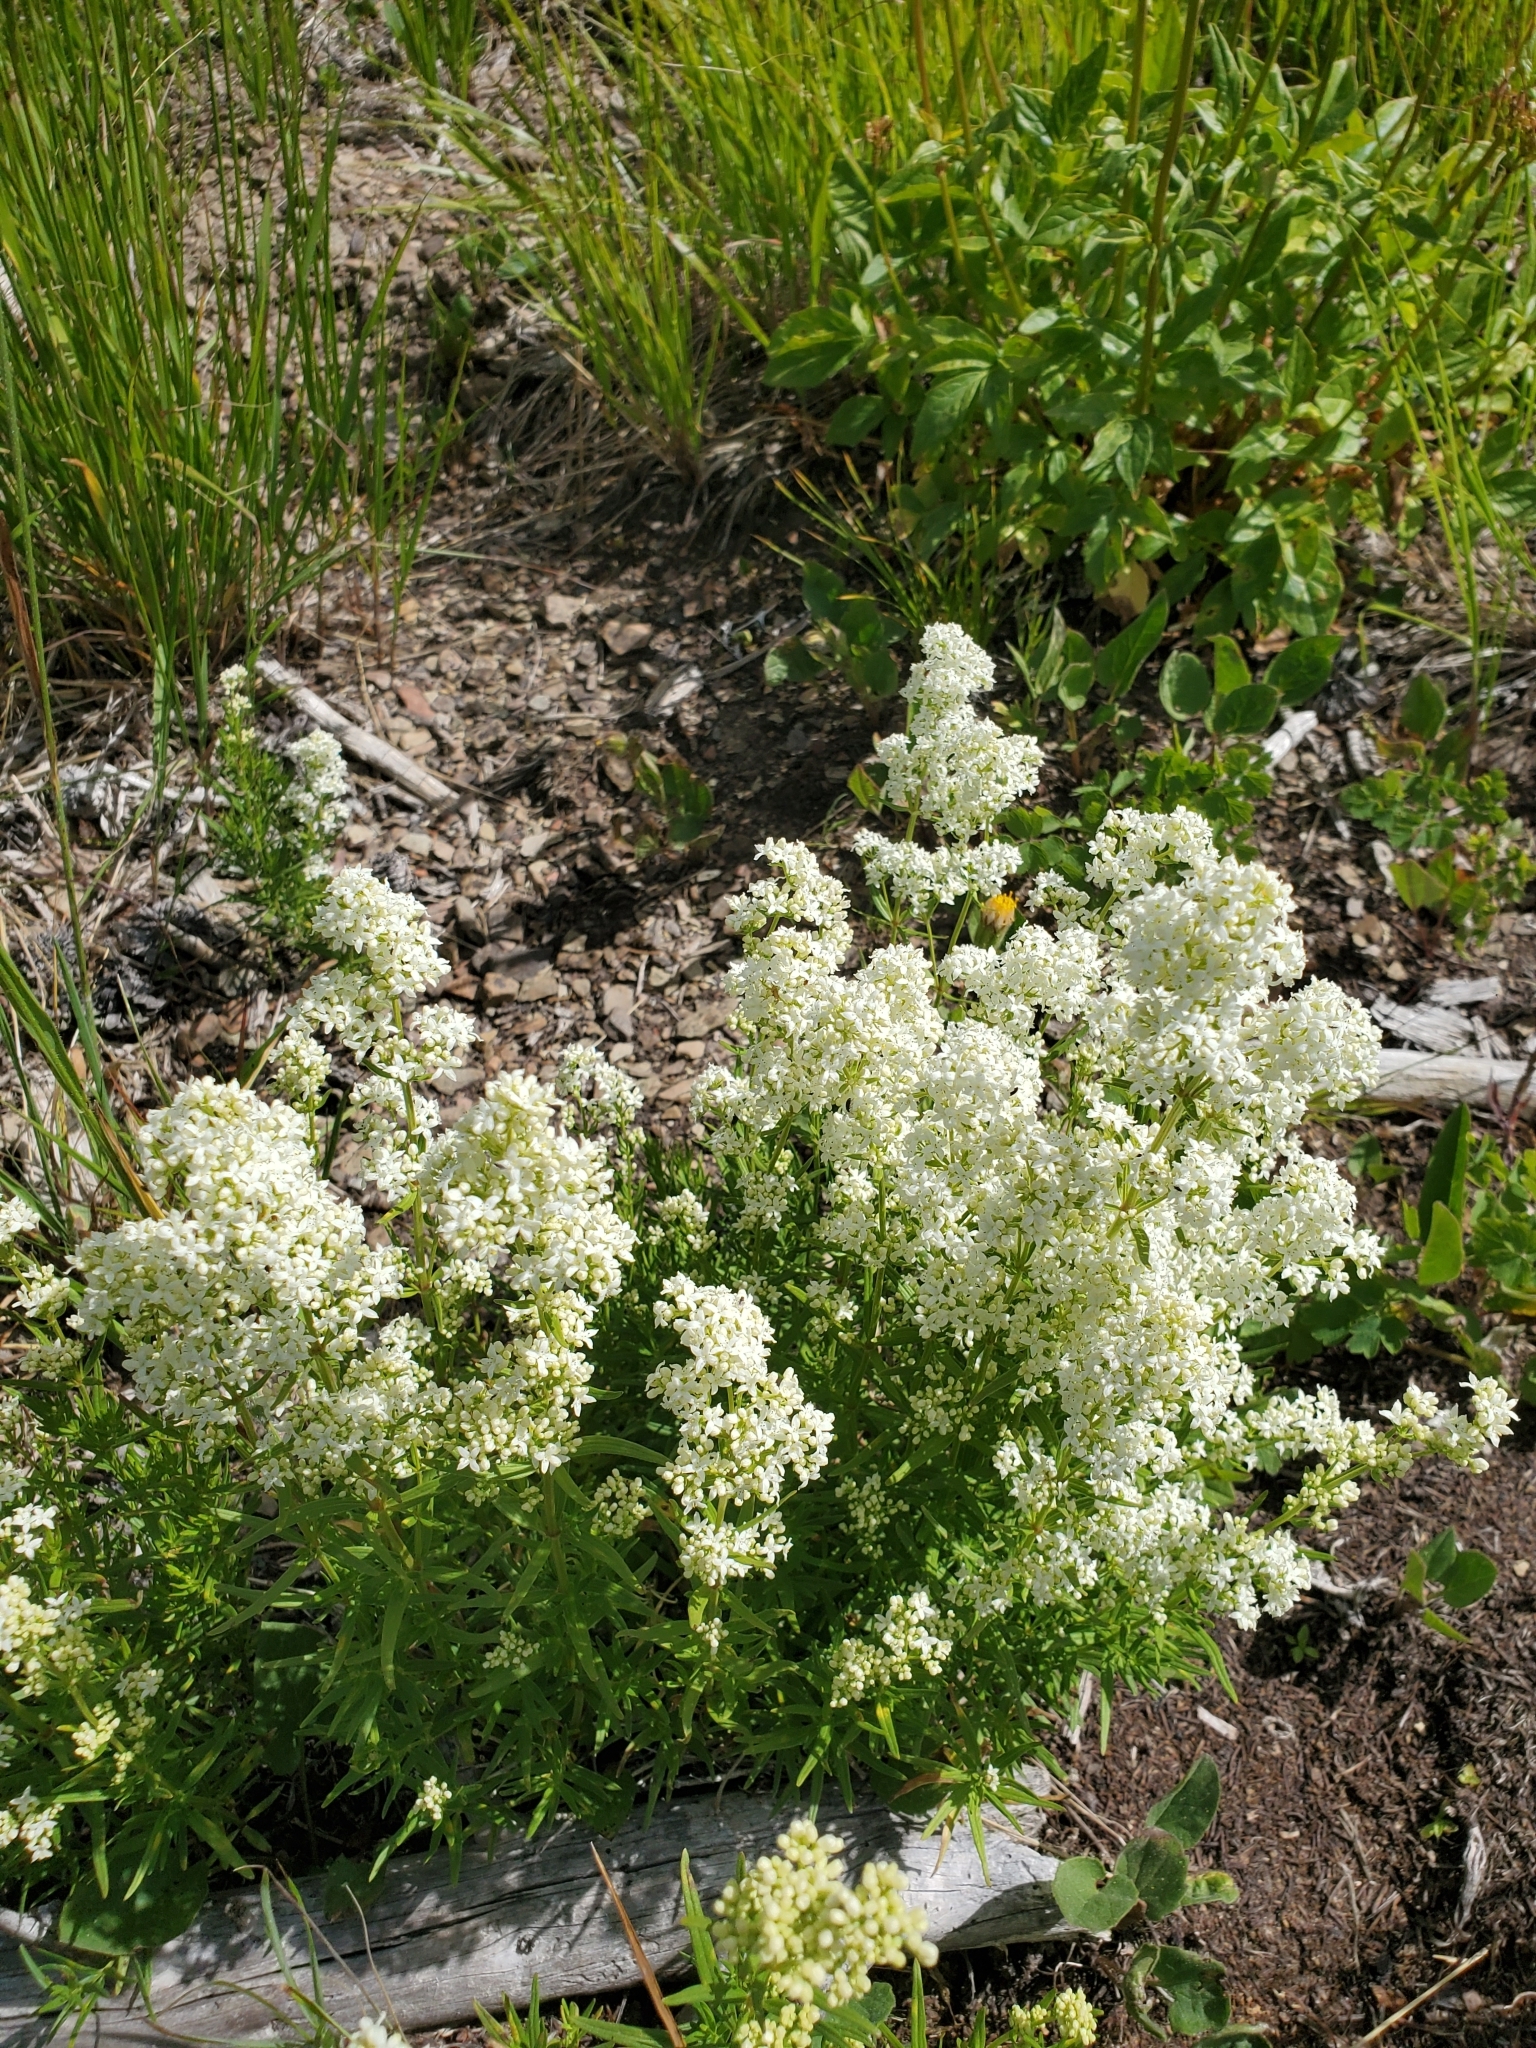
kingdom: Plantae
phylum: Tracheophyta
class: Magnoliopsida
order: Gentianales
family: Rubiaceae
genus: Galium
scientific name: Galium boreale
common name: Northern bedstraw
